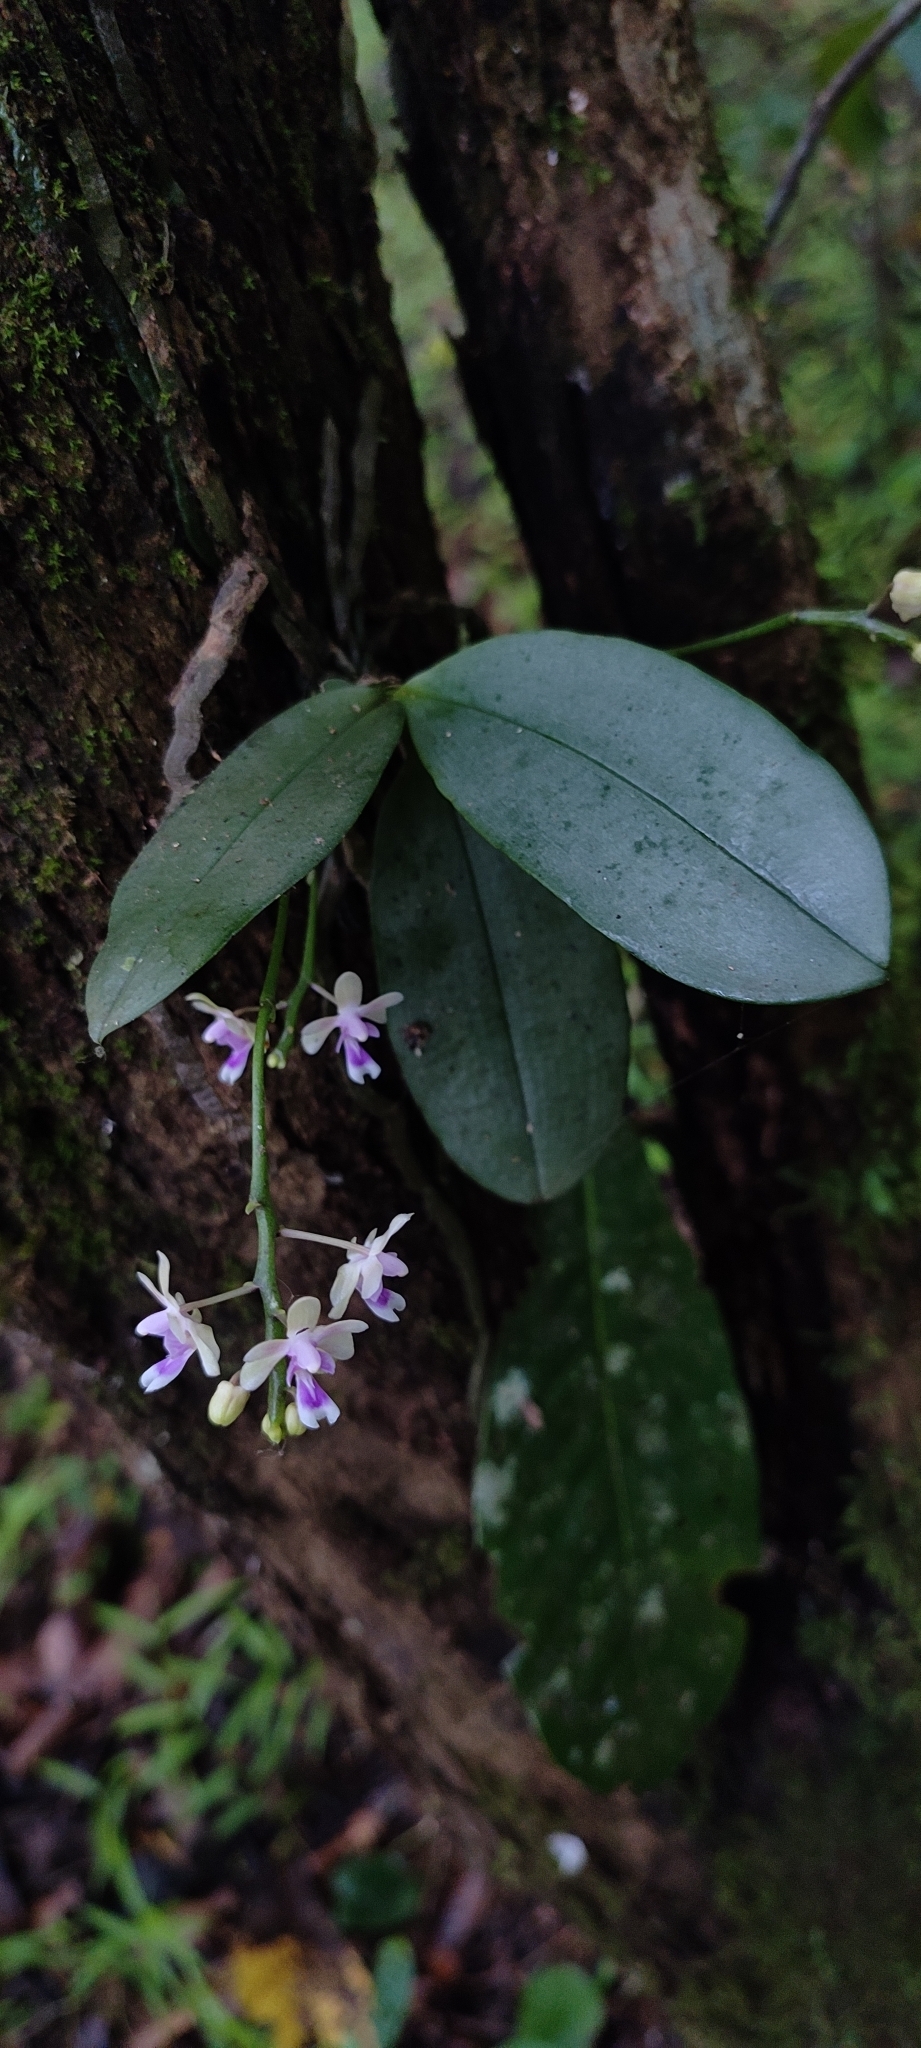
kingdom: Plantae
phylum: Tracheophyta
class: Liliopsida
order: Asparagales
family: Orchidaceae
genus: Phalaenopsis
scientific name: Phalaenopsis deliciosa
